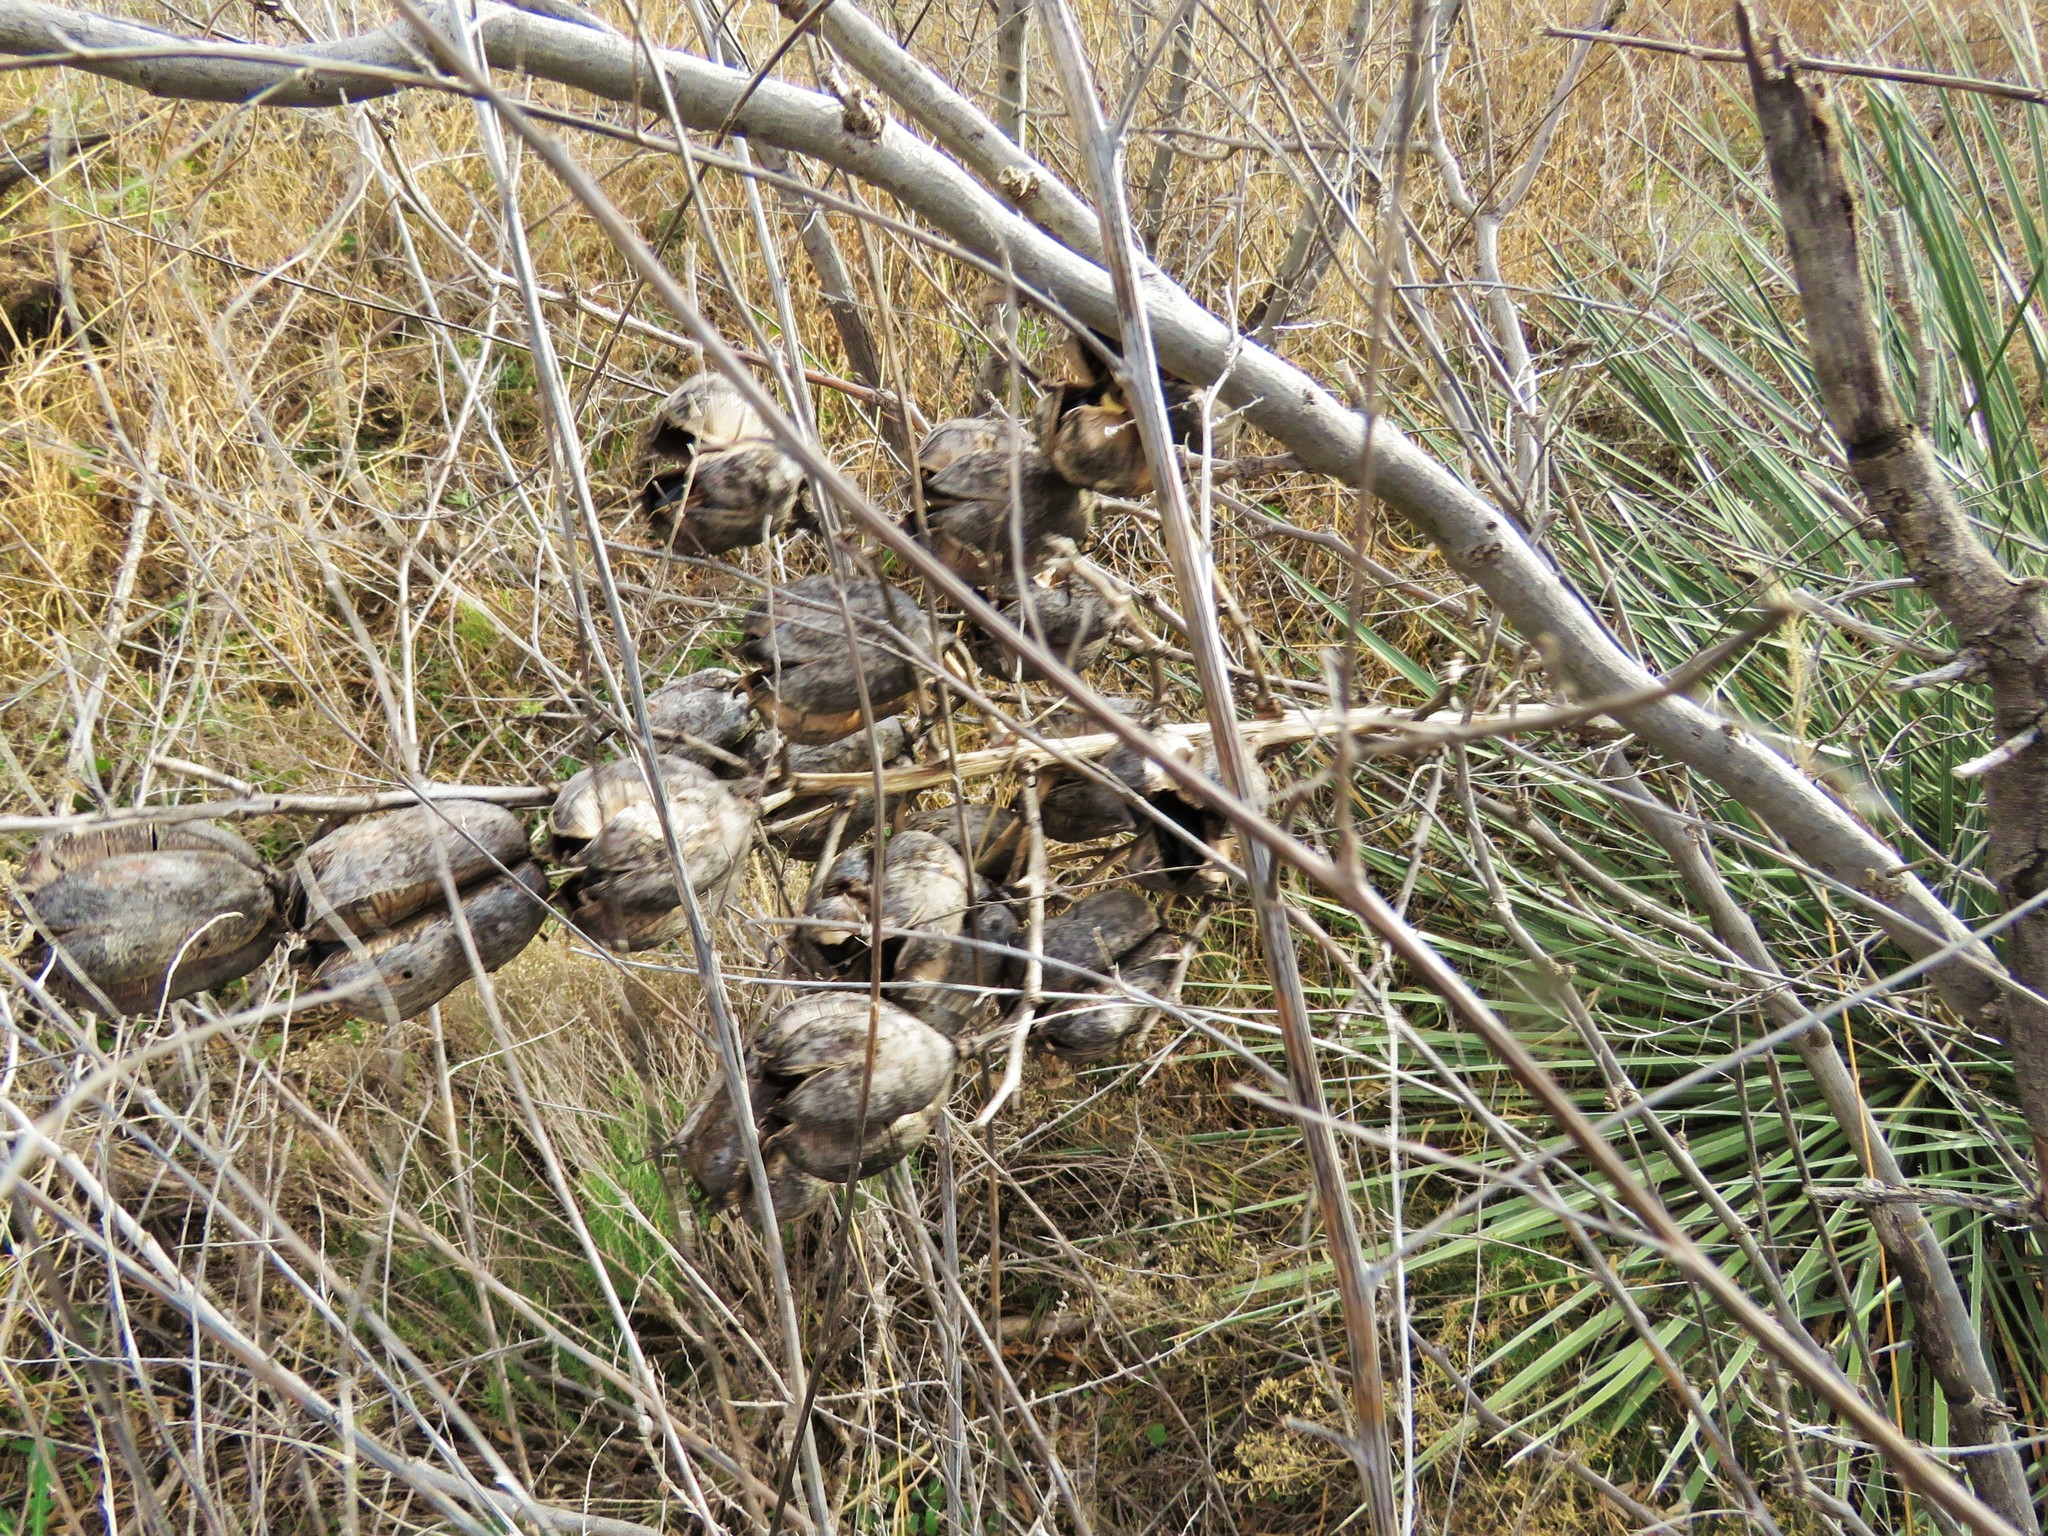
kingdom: Plantae
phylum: Tracheophyta
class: Liliopsida
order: Asparagales
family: Asparagaceae
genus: Yucca
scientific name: Yucca campestris
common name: Plains yucca
